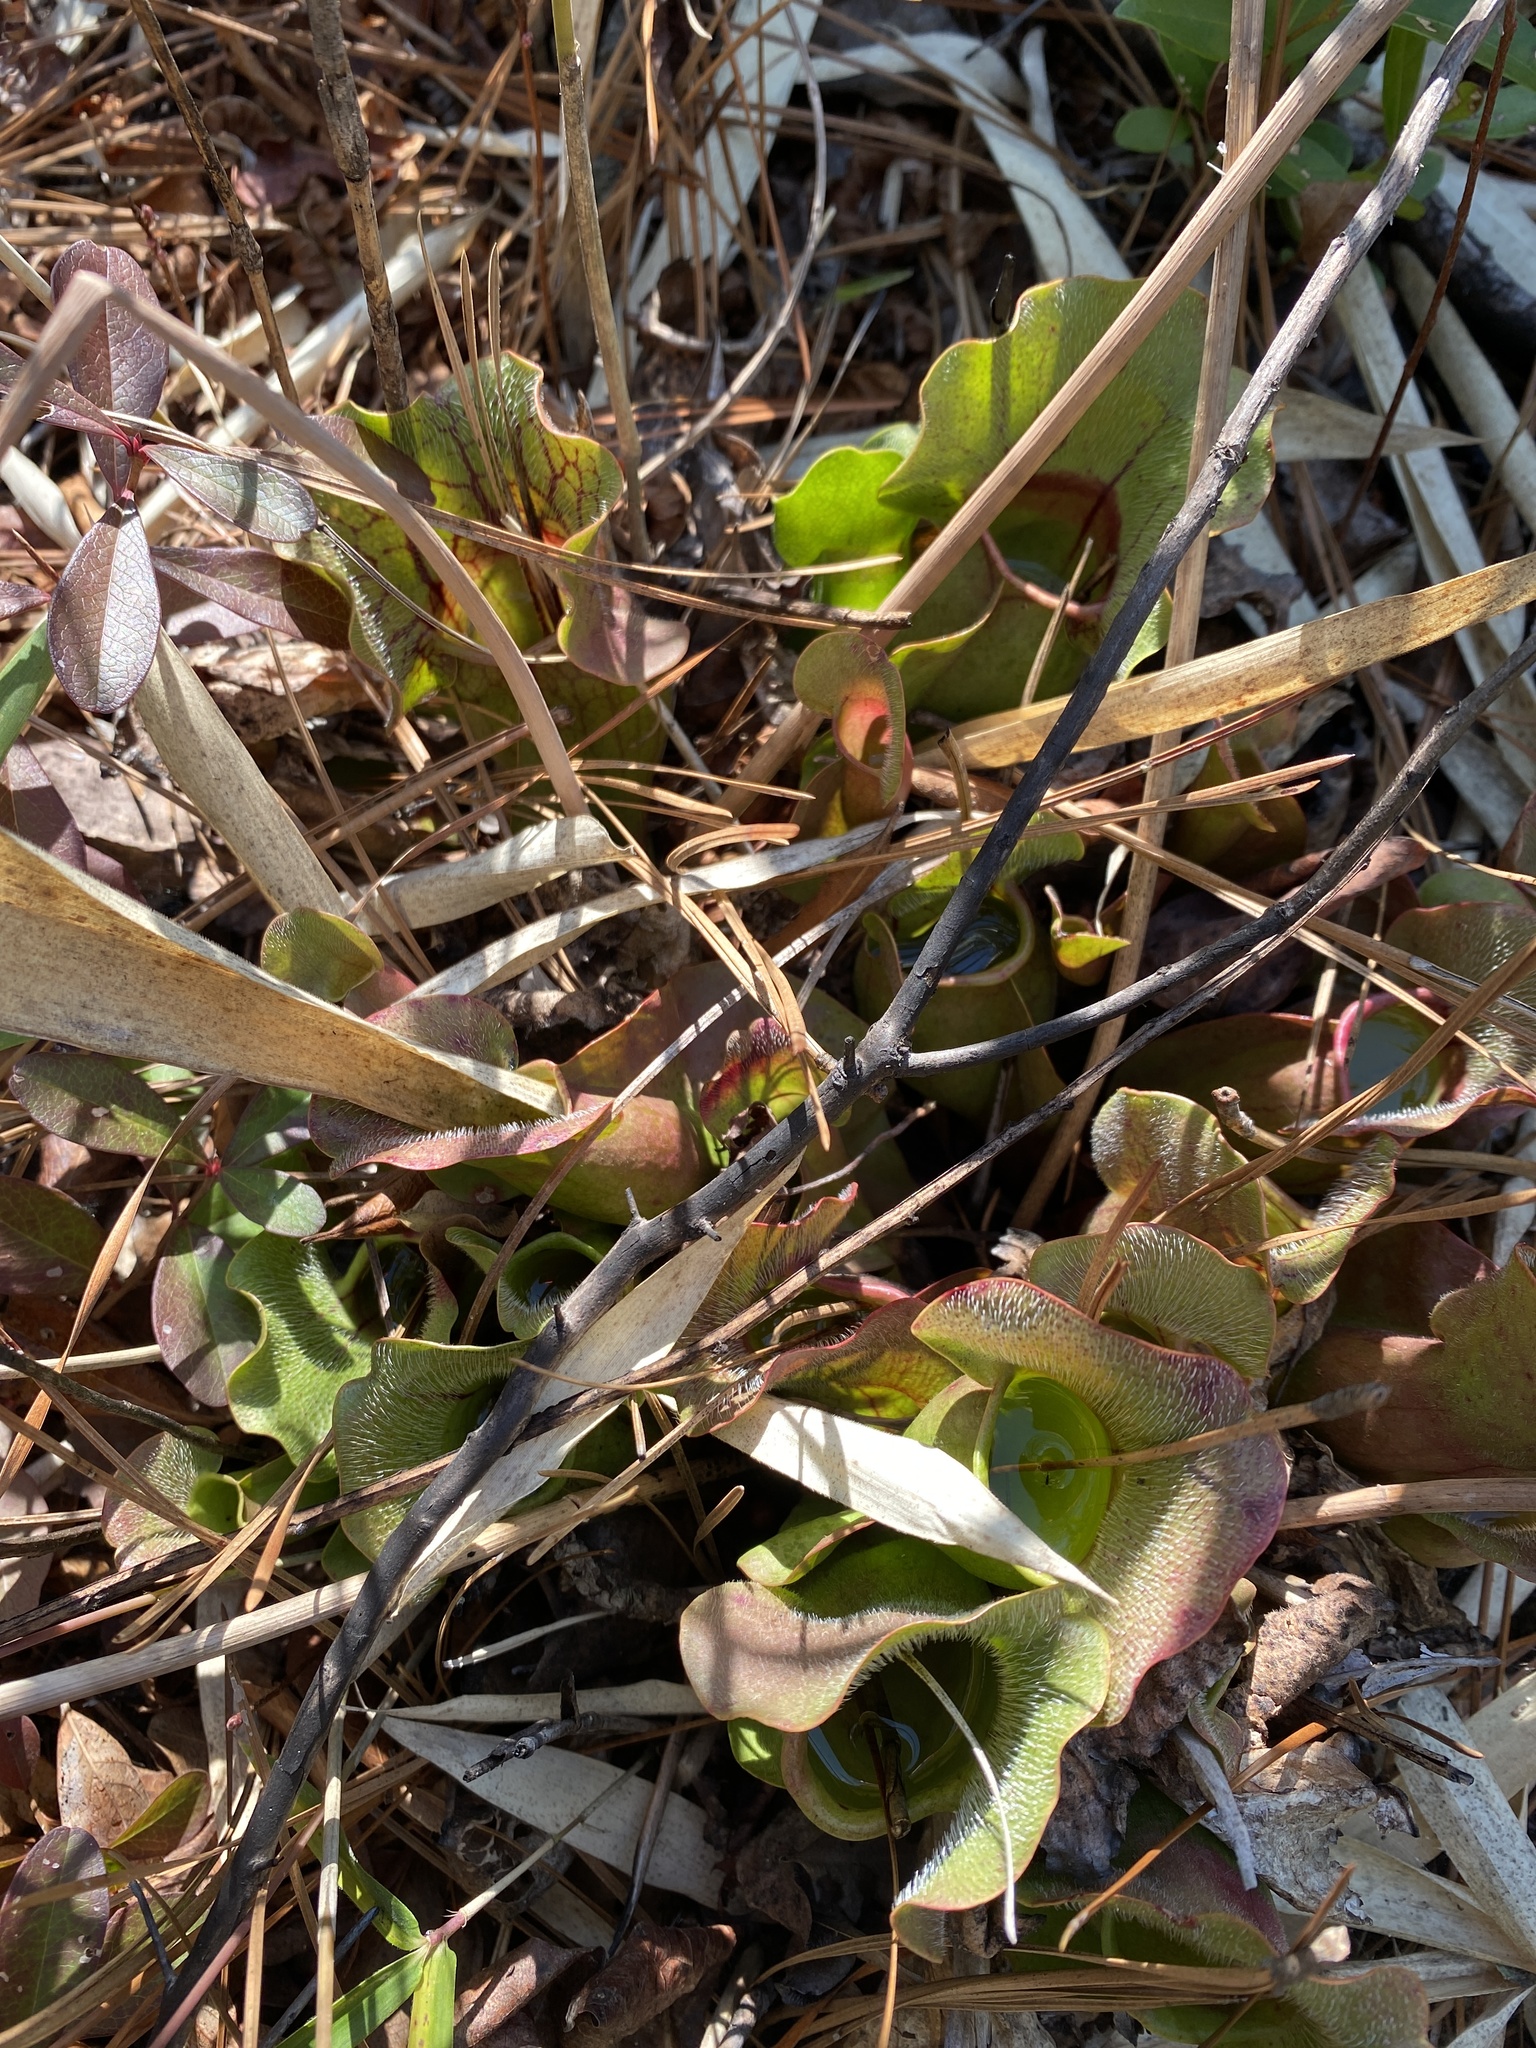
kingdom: Plantae
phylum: Tracheophyta
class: Magnoliopsida
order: Ericales
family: Sarraceniaceae
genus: Sarracenia
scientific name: Sarracenia purpurea
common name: Pitcherplant
